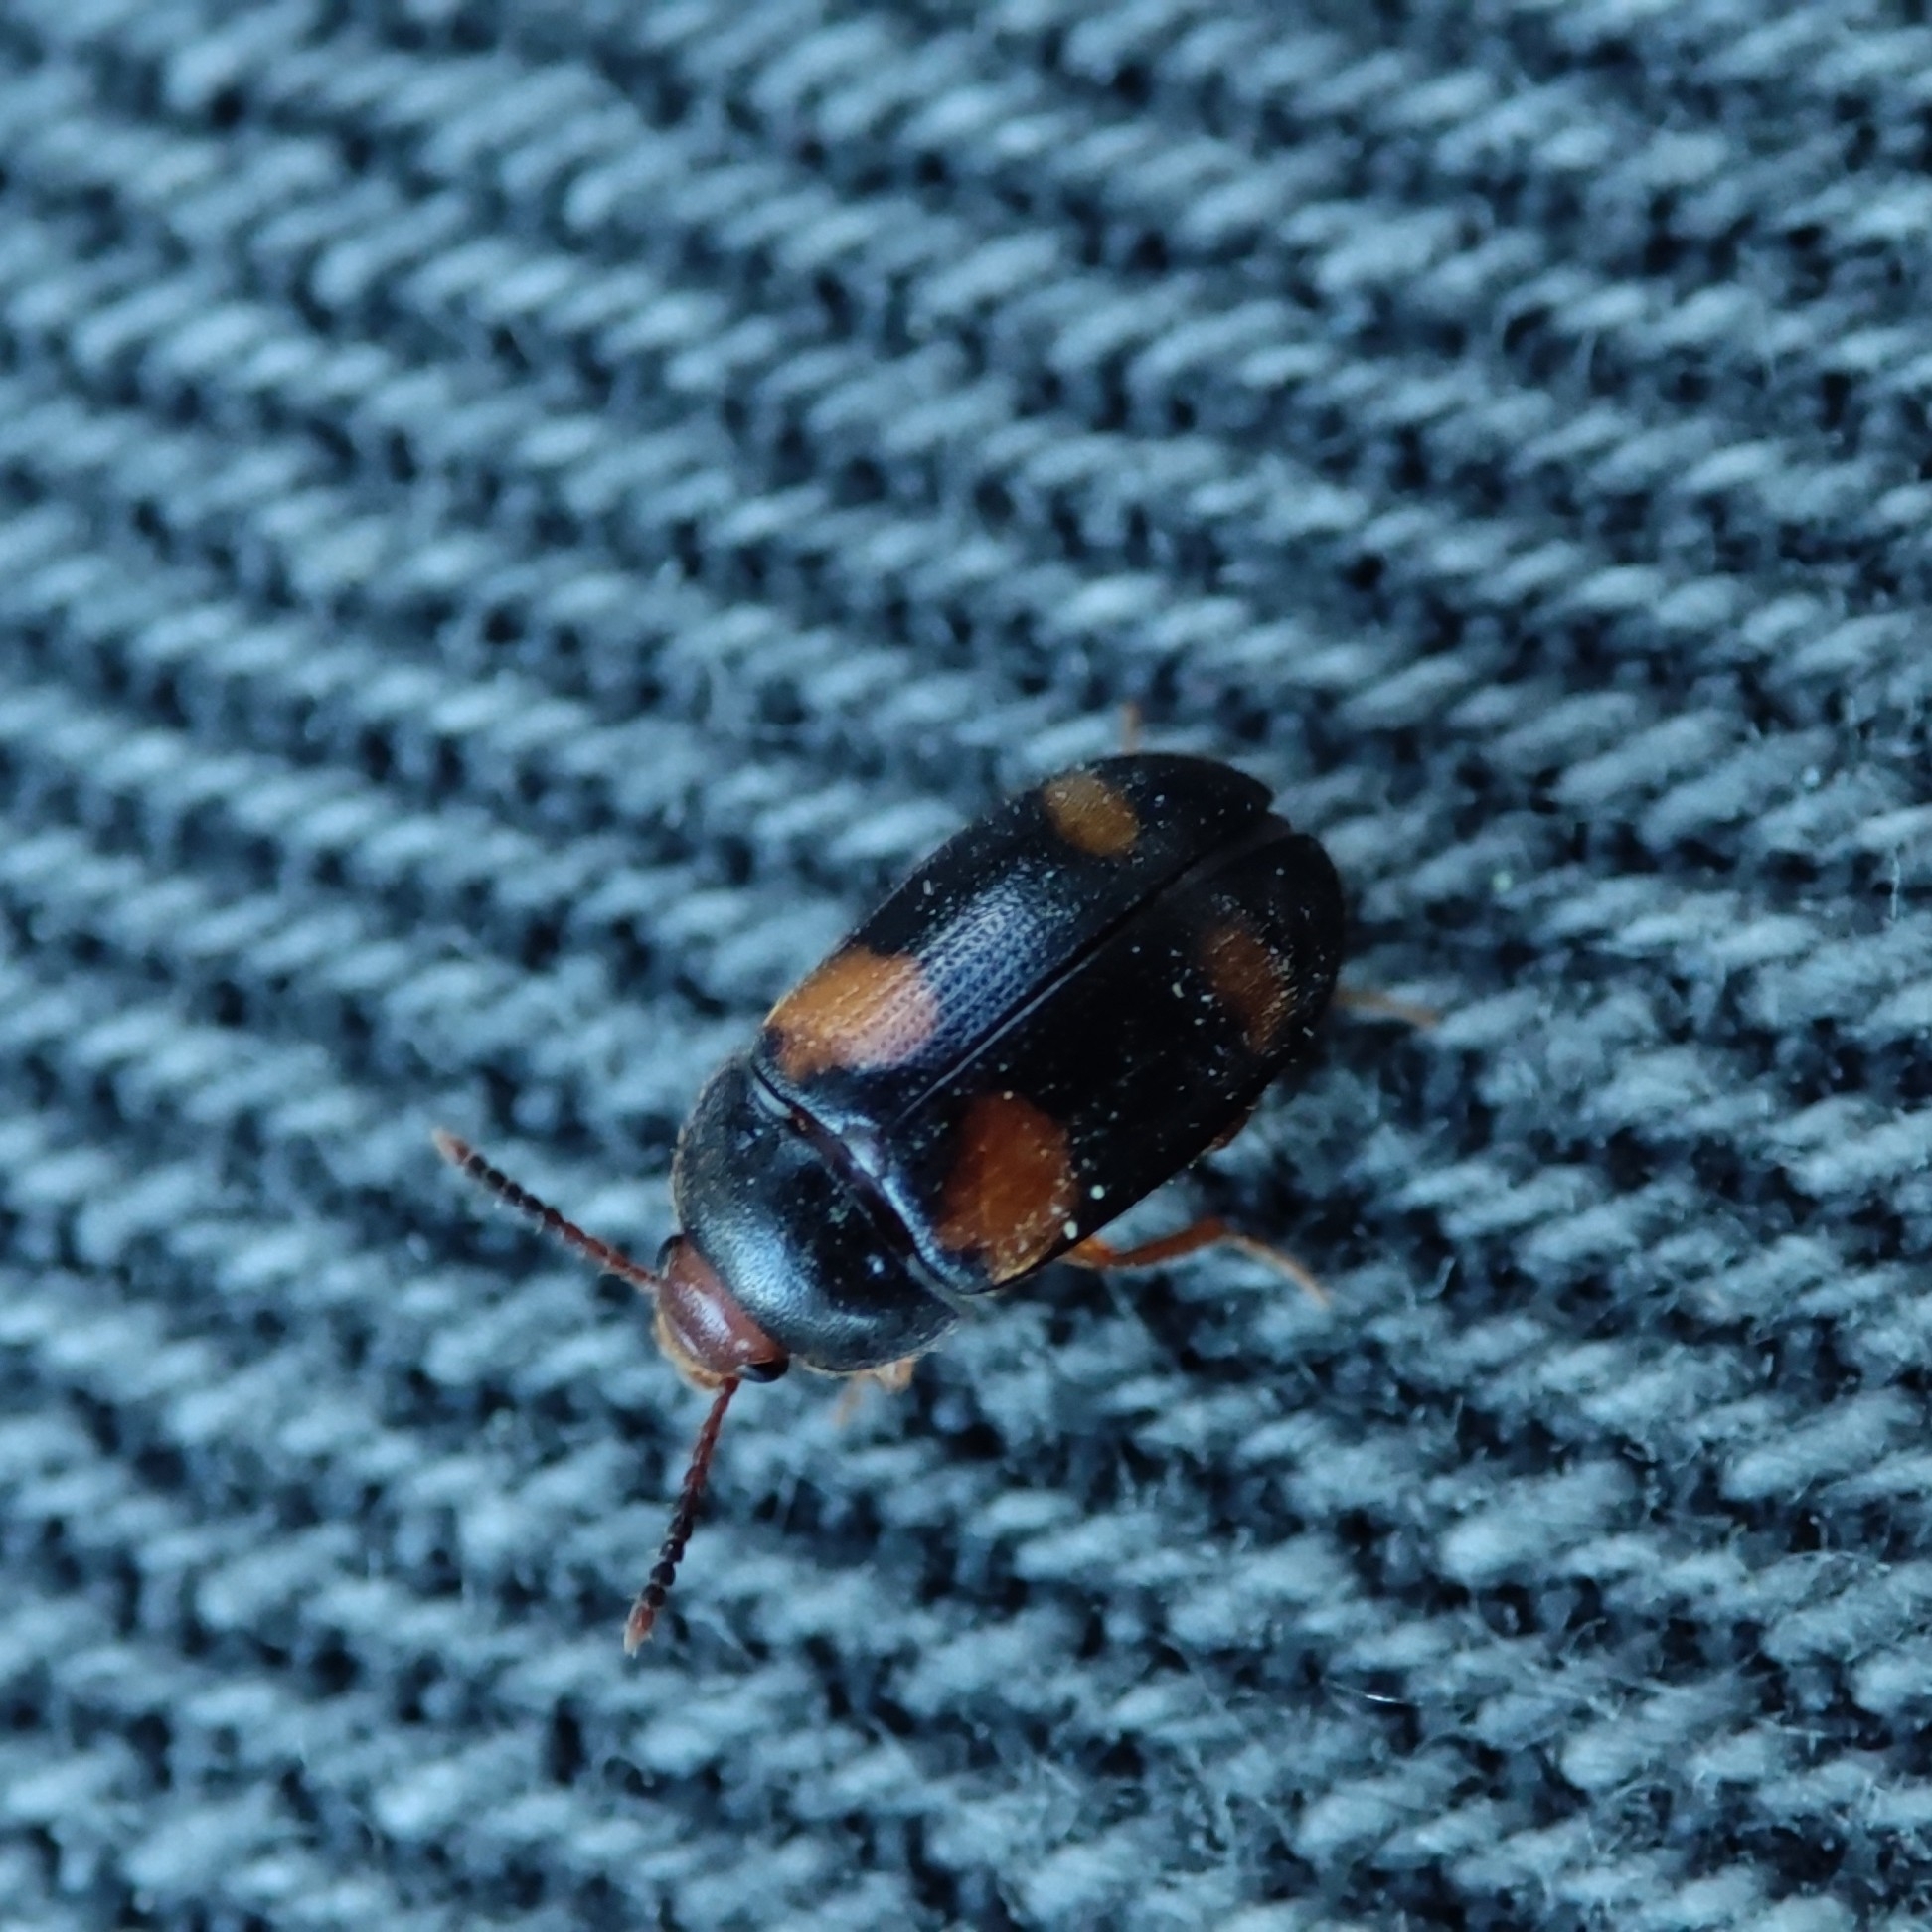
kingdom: Animalia
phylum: Arthropoda
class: Insecta
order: Coleoptera
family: Mycetophagidae
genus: Mycetophagus
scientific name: Mycetophagus quadripustulatus
